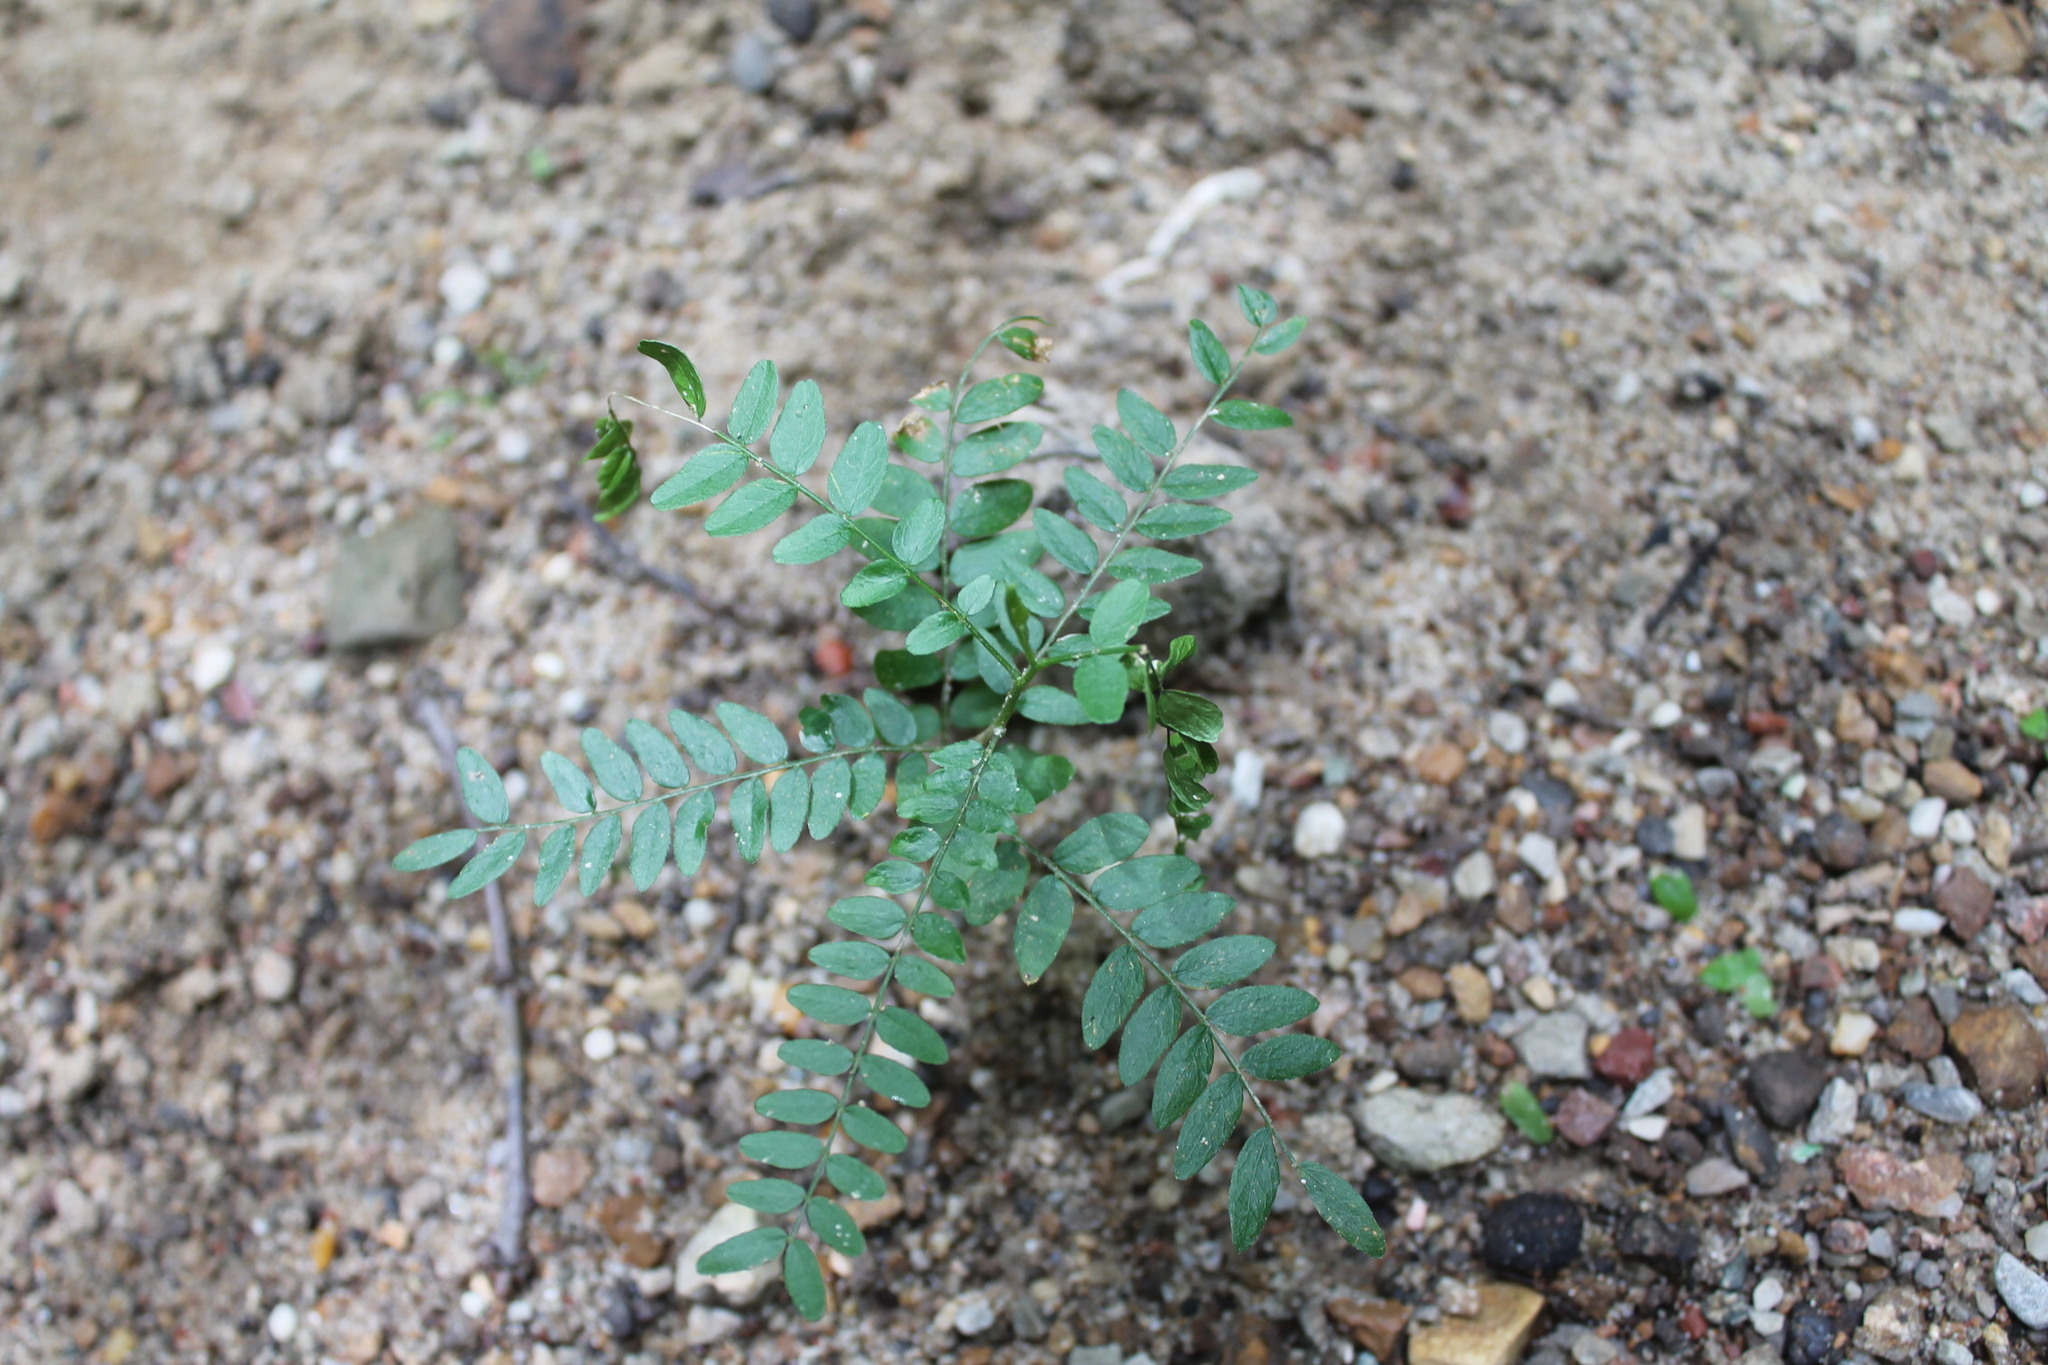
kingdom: Plantae
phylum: Tracheophyta
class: Magnoliopsida
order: Fabales
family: Fabaceae
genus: Gleditsia
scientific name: Gleditsia triacanthos
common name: Common honeylocust
